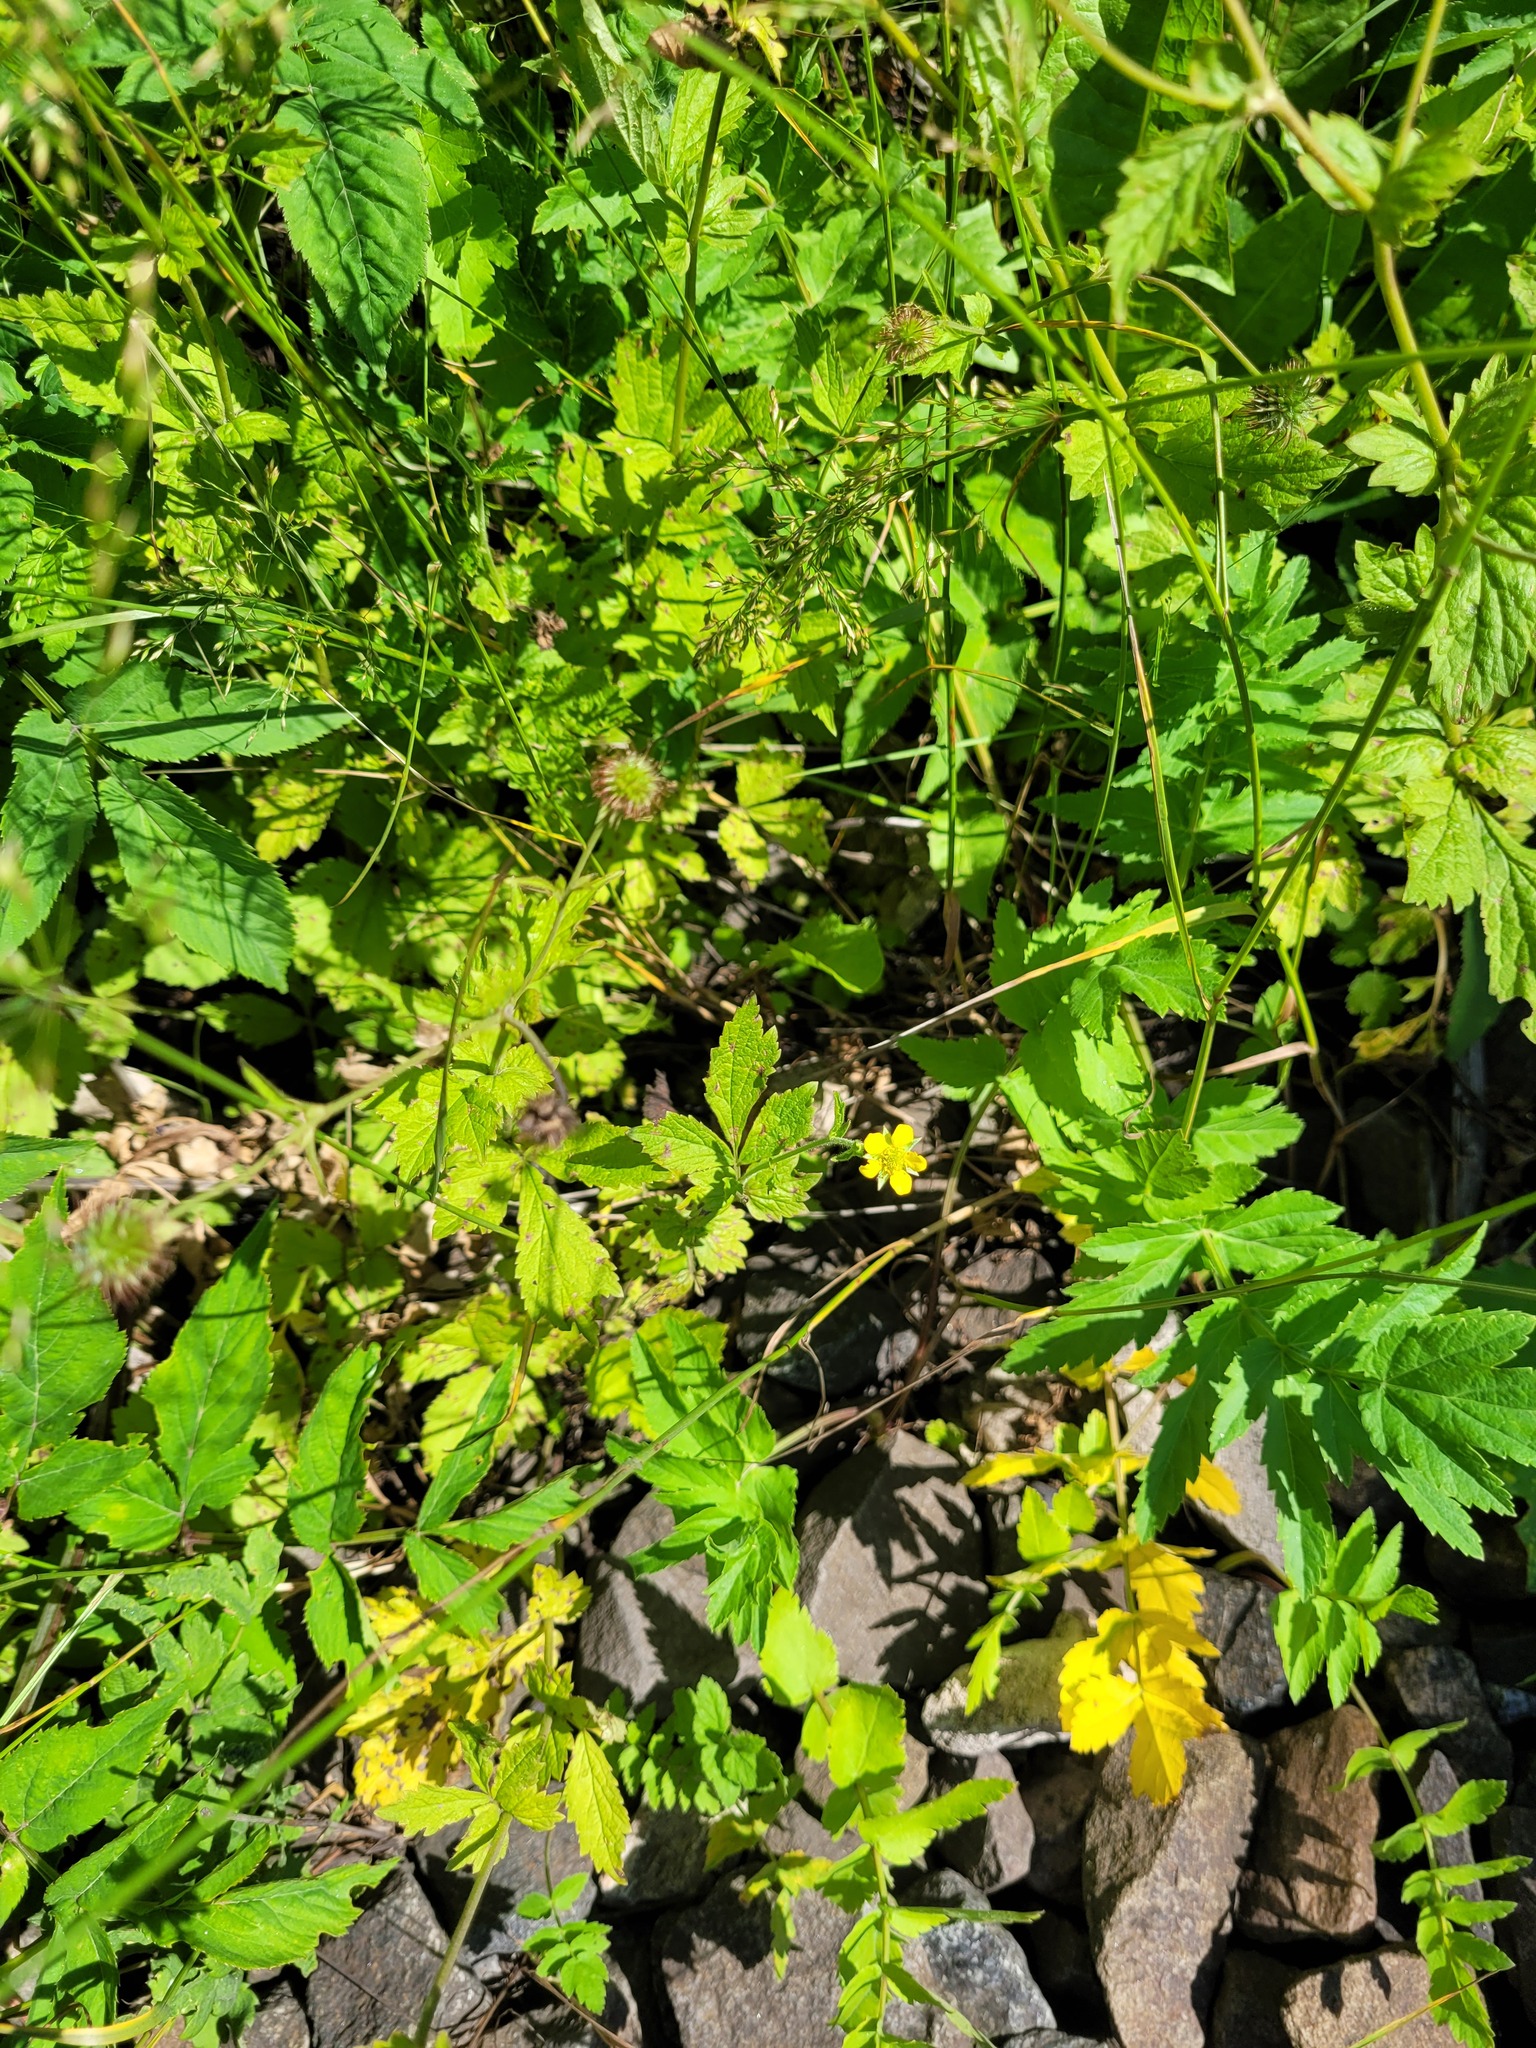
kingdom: Plantae
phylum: Tracheophyta
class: Magnoliopsida
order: Rosales
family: Rosaceae
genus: Geum
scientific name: Geum urbanum
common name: Wood avens
